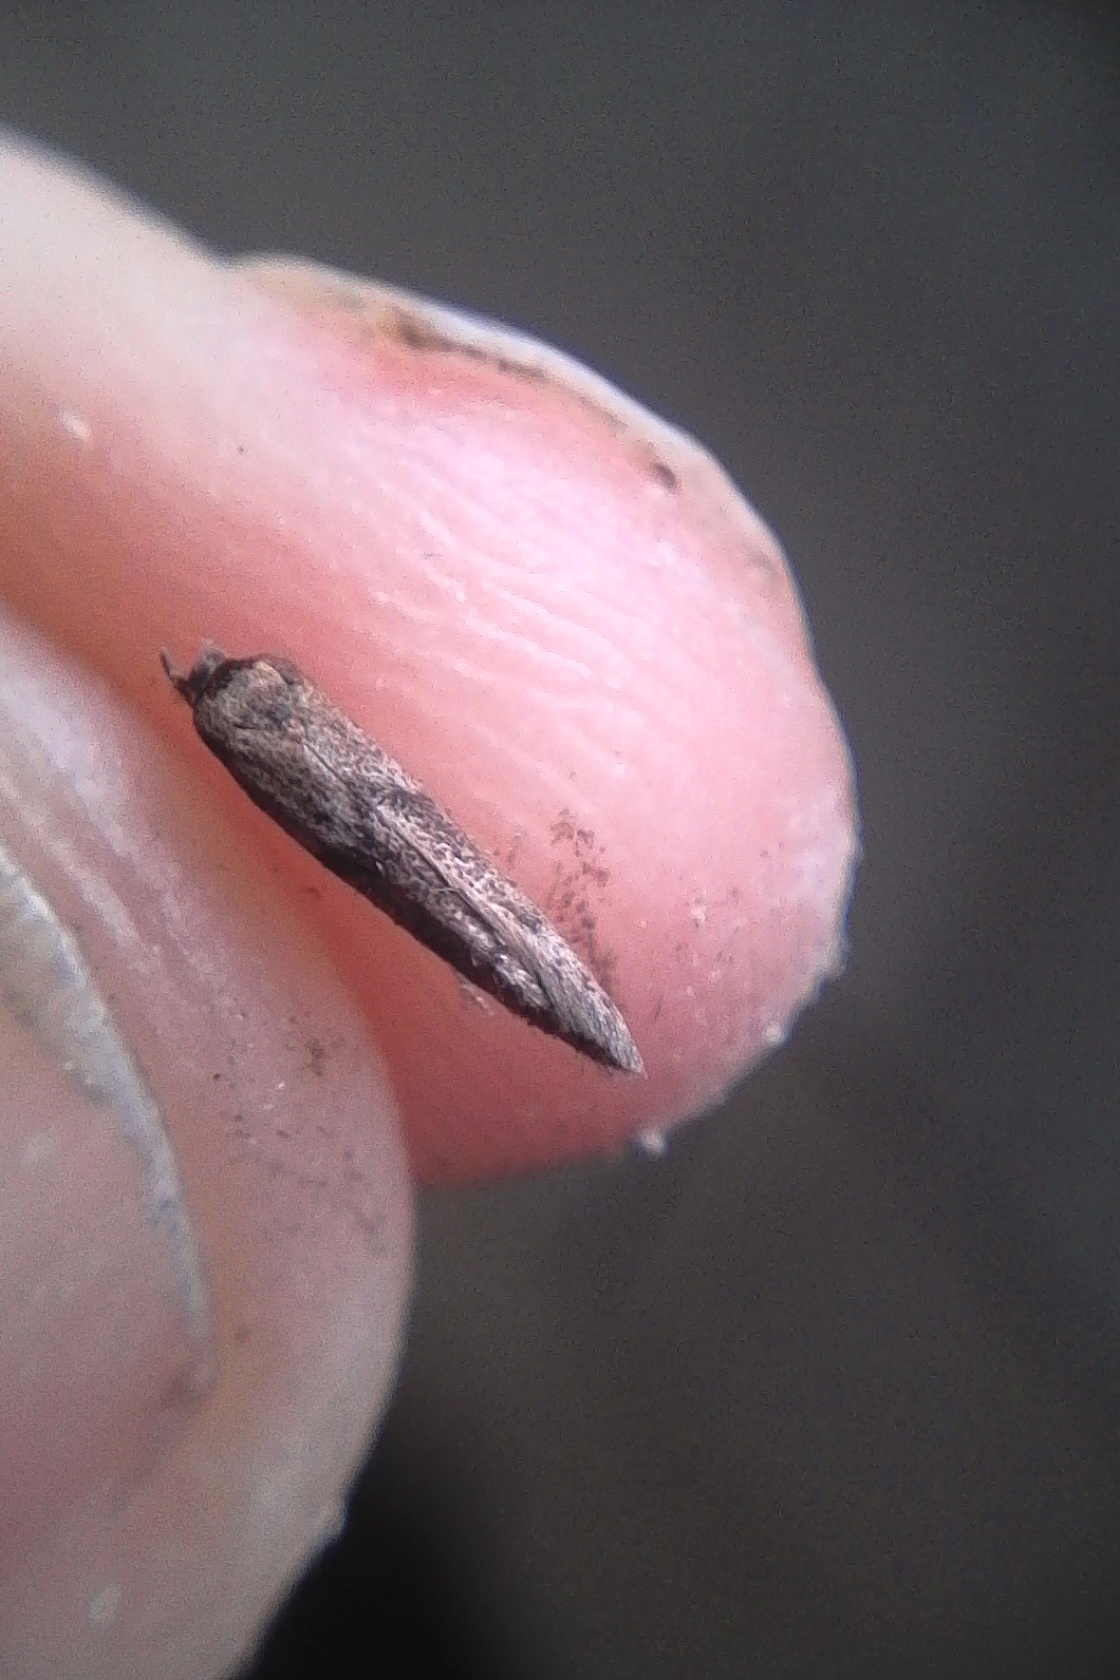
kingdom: Animalia
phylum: Arthropoda
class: Insecta
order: Lepidoptera
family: Blastobasidae
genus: Blastobasis
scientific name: Blastobasis tarda
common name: Blastobasid moth
